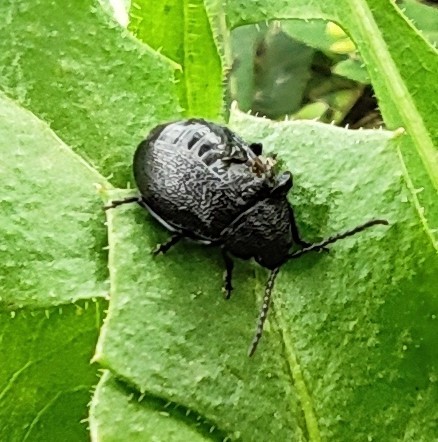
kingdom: Animalia
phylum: Arthropoda
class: Insecta
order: Coleoptera
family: Chrysomelidae
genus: Galeruca
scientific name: Galeruca tanaceti
